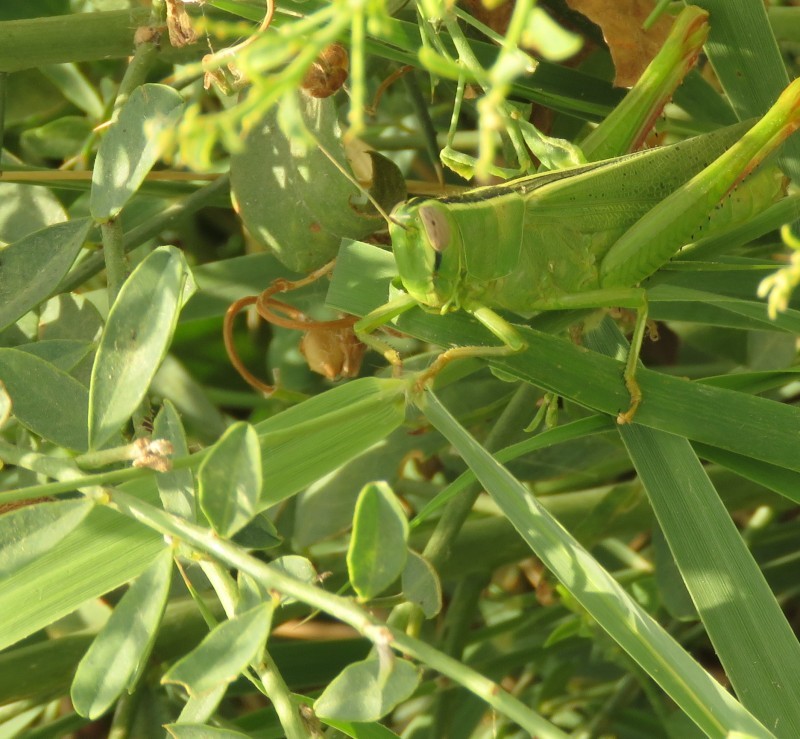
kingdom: Animalia
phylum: Arthropoda
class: Insecta
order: Orthoptera
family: Acrididae
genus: Heteracris
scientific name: Heteracris pterosticha
